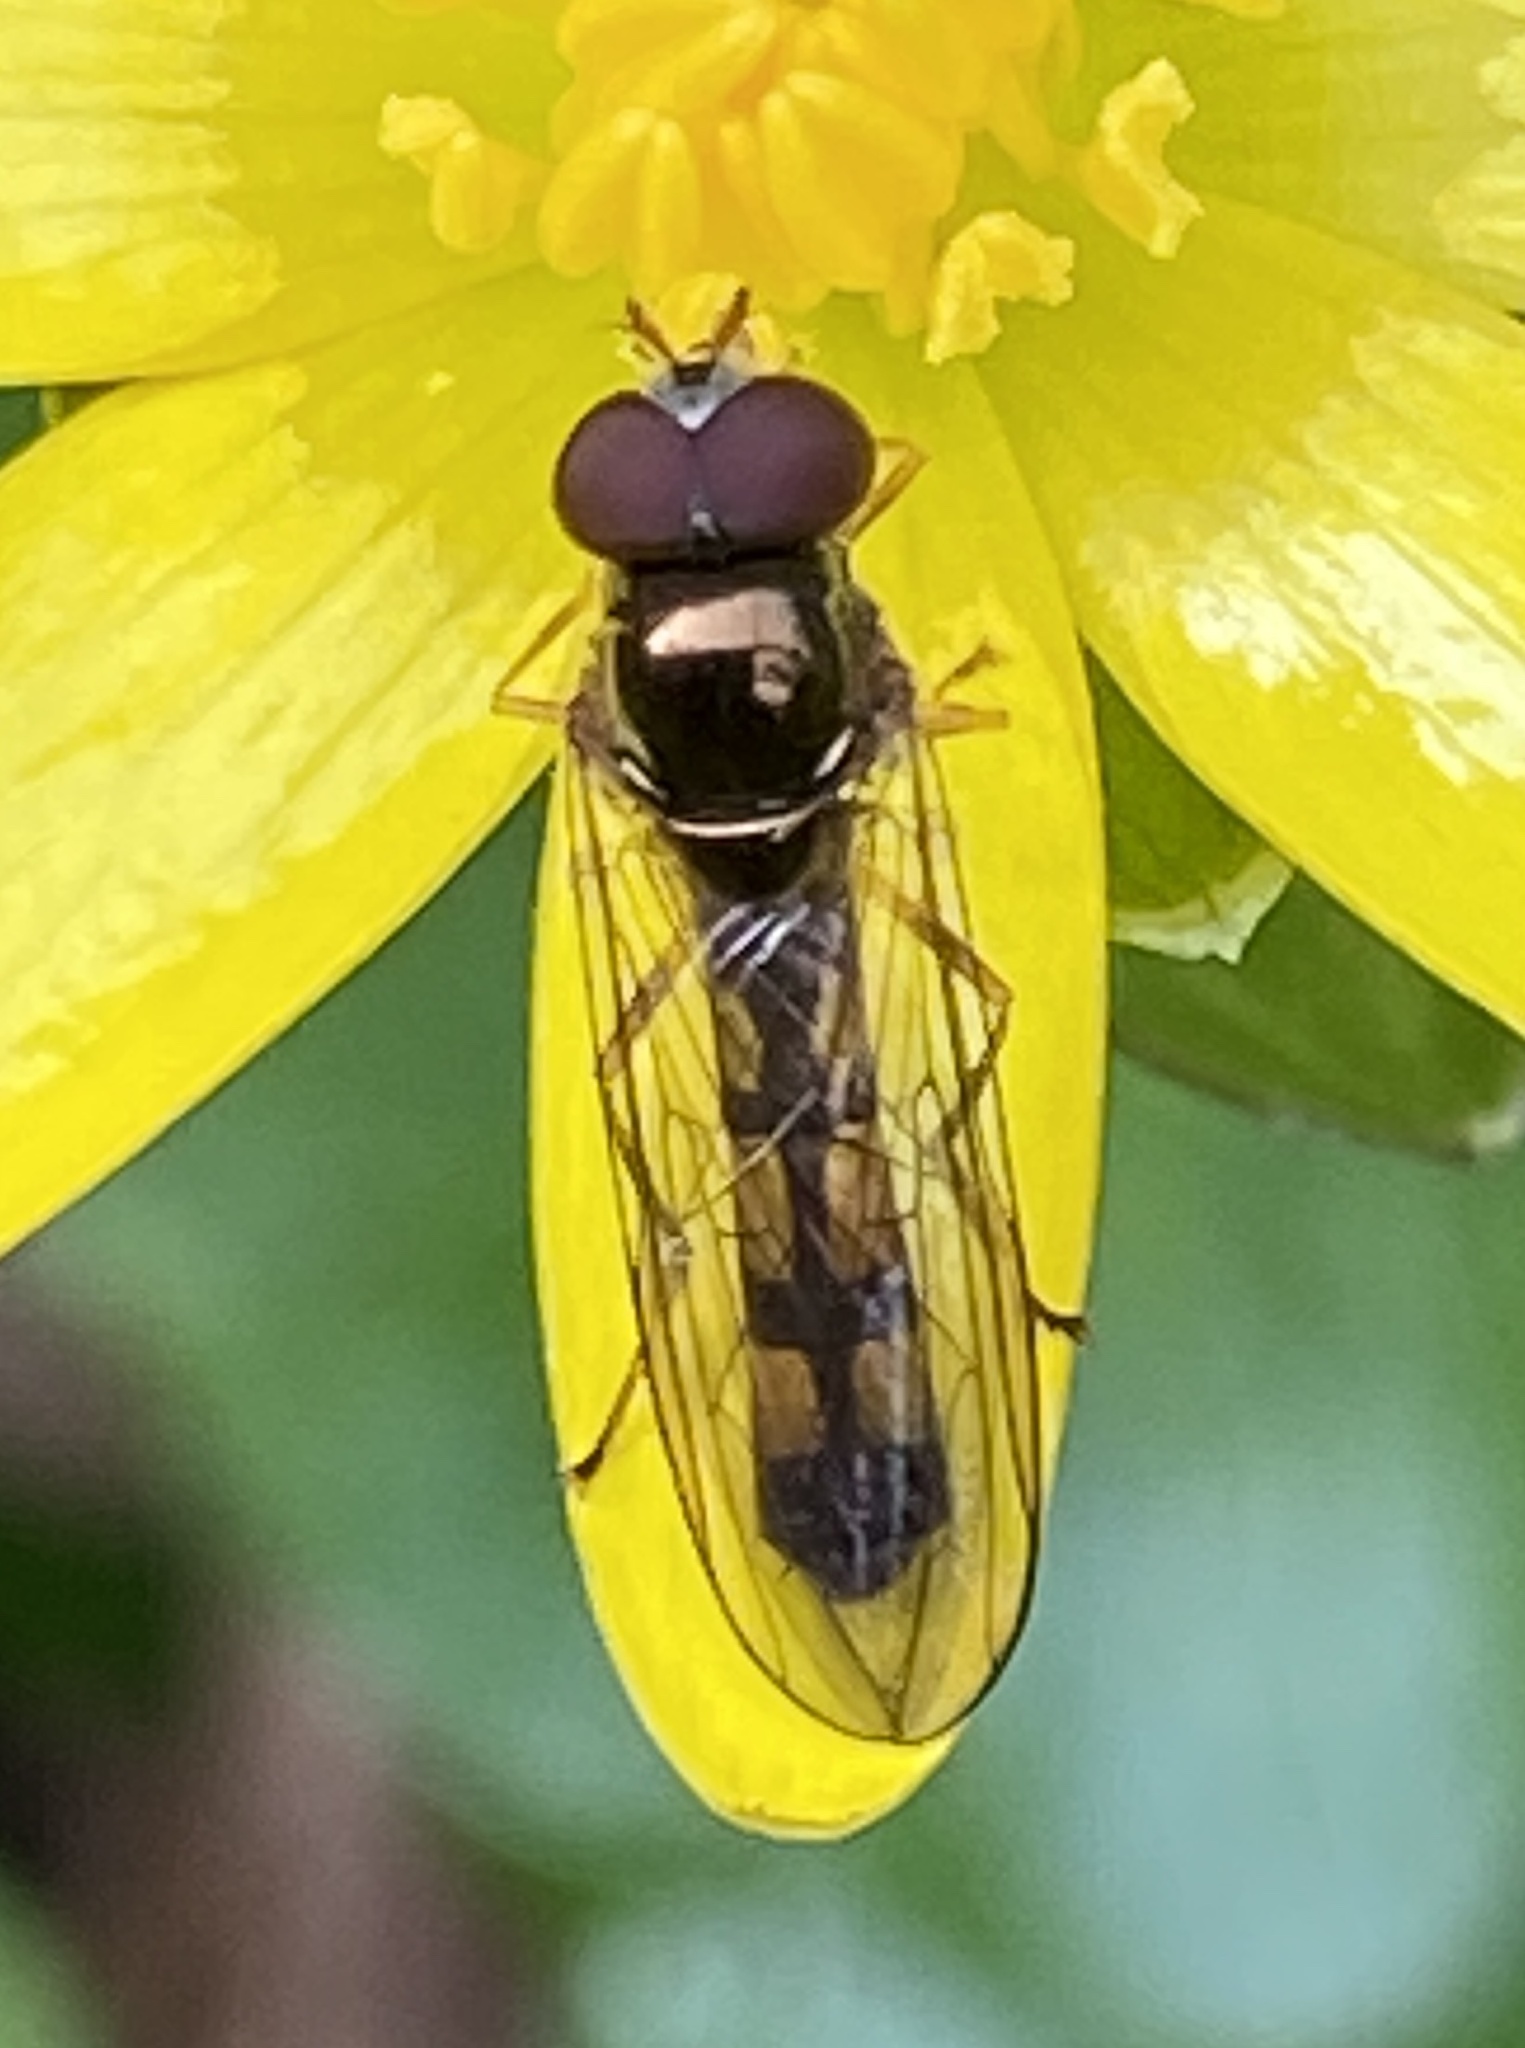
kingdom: Animalia
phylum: Arthropoda
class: Insecta
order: Diptera
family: Syrphidae
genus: Melanostoma
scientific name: Melanostoma scalare
